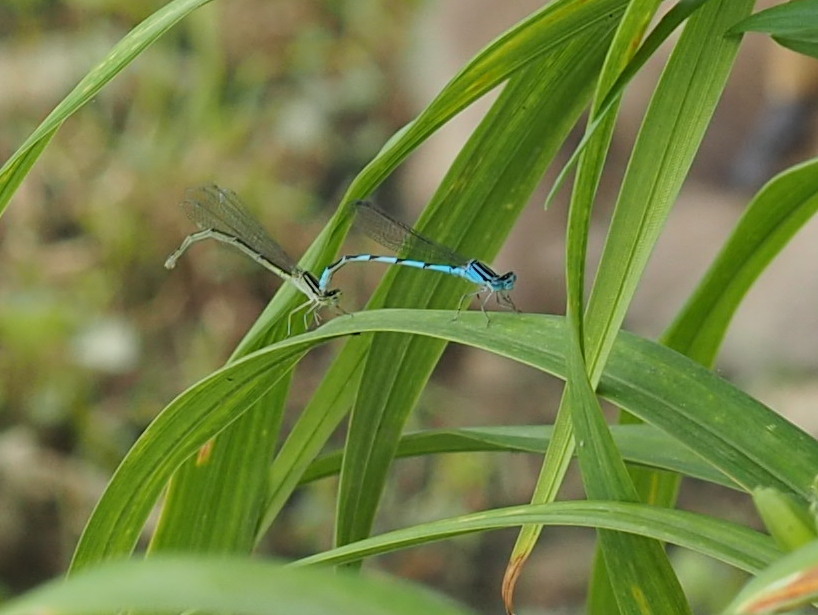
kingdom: Animalia
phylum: Arthropoda
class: Insecta
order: Odonata
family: Coenagrionidae
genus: Enallagma
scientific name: Enallagma durum
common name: Big bluet
